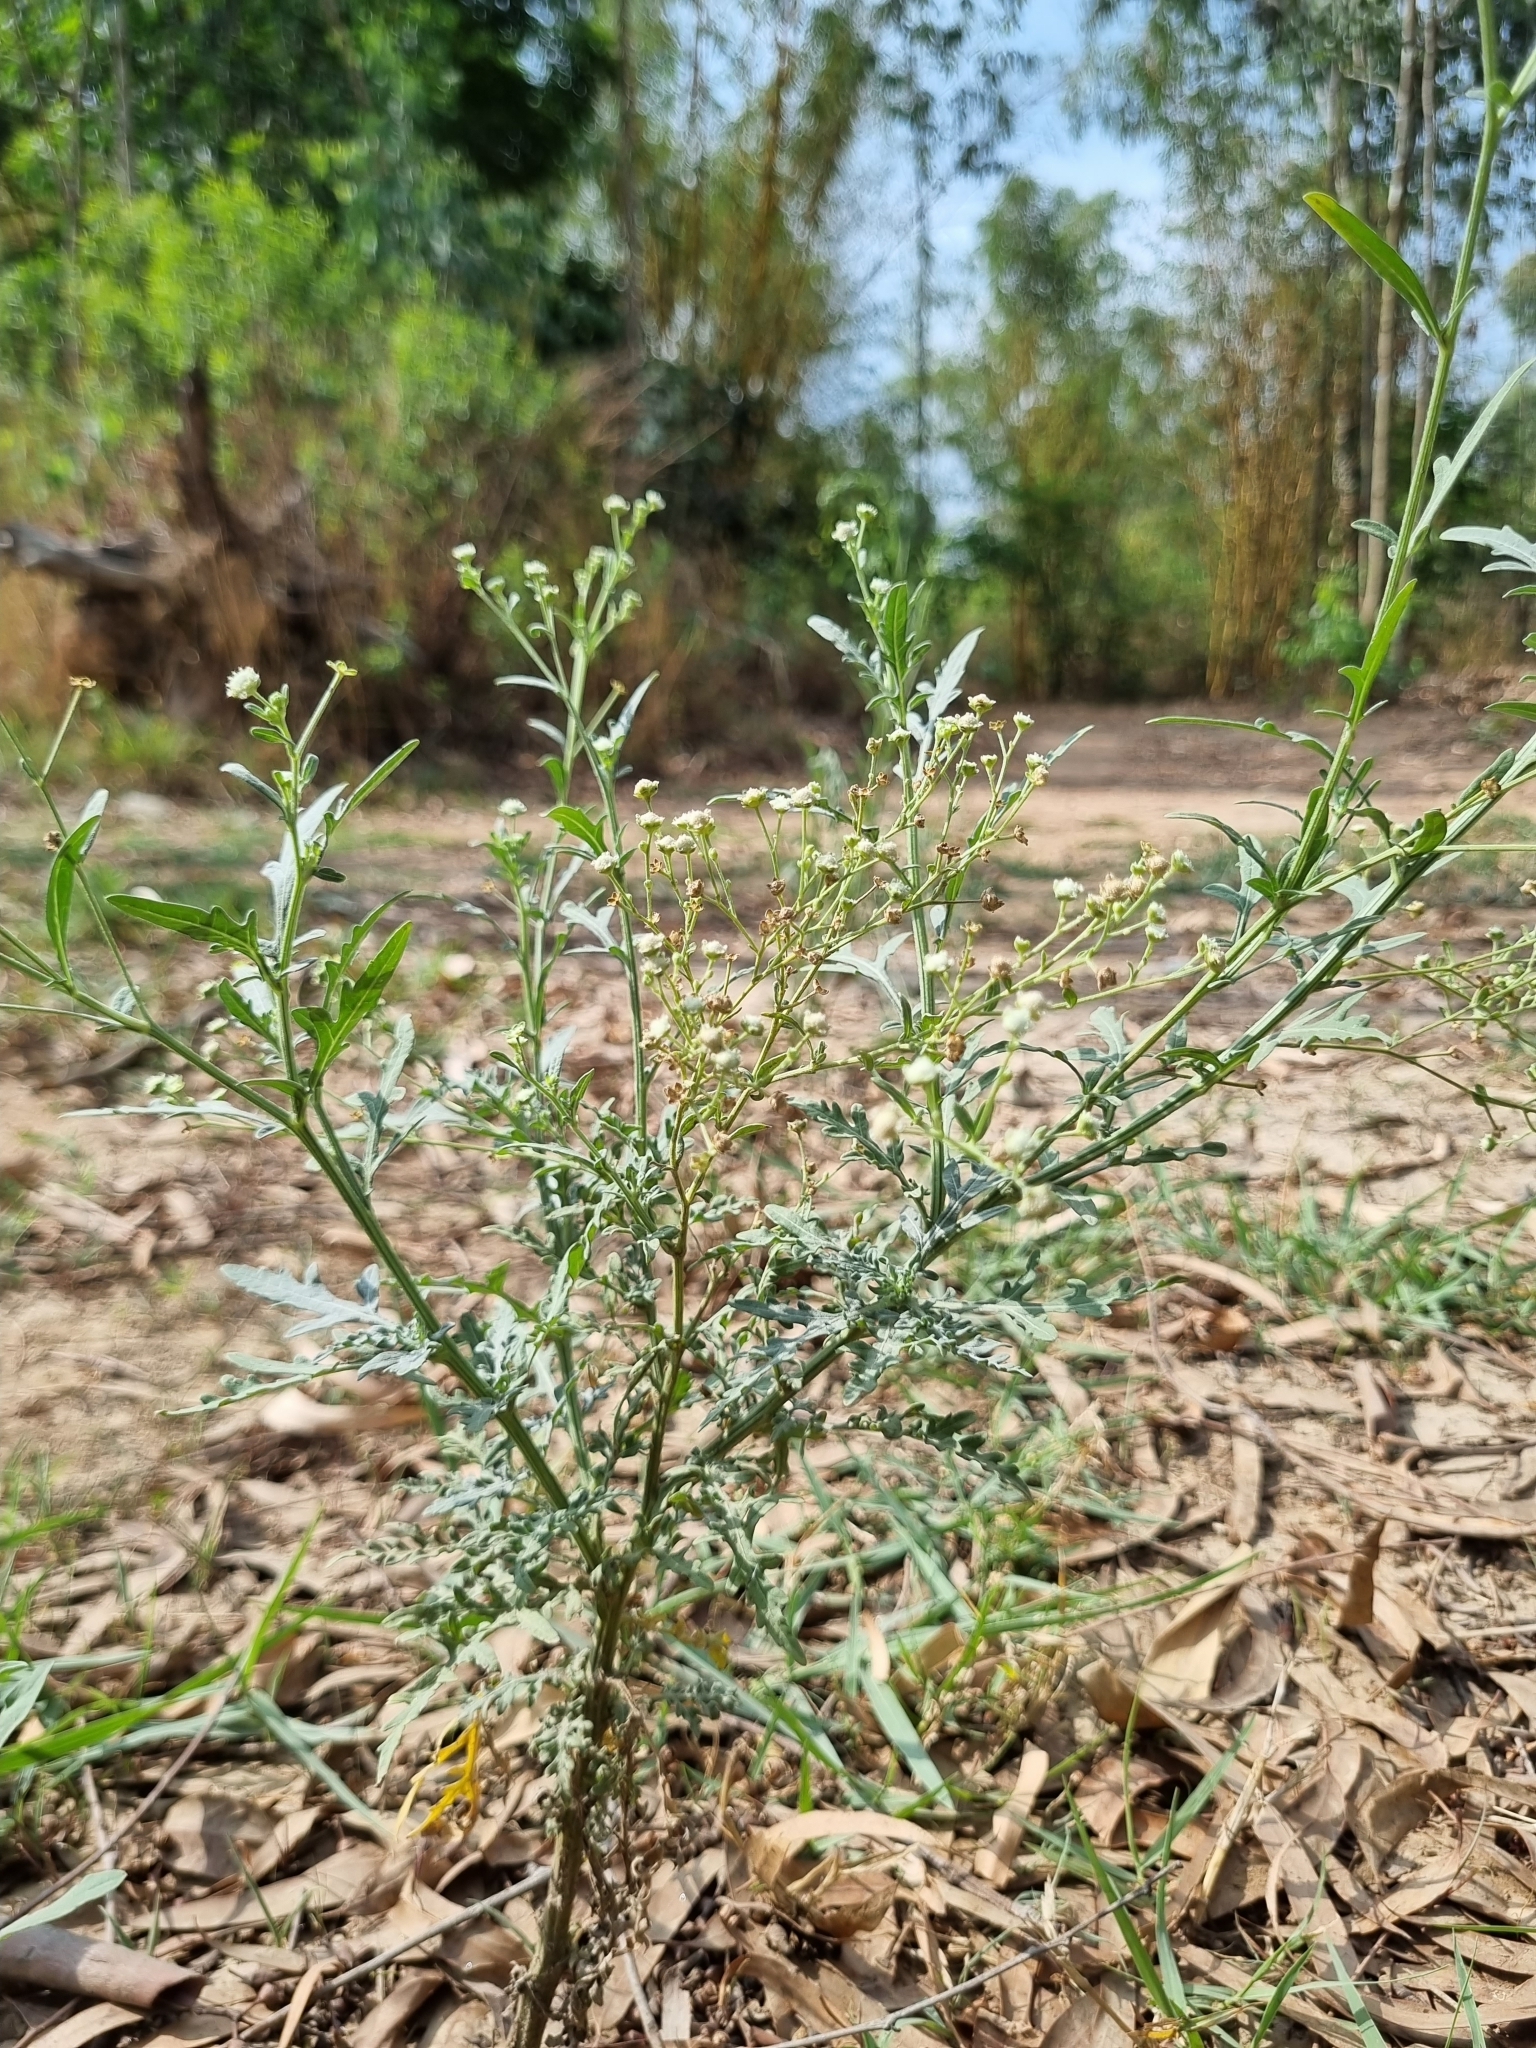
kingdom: Plantae
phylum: Tracheophyta
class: Magnoliopsida
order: Asterales
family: Asteraceae
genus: Parthenium
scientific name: Parthenium hysterophorus
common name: Santa maria feverfew
